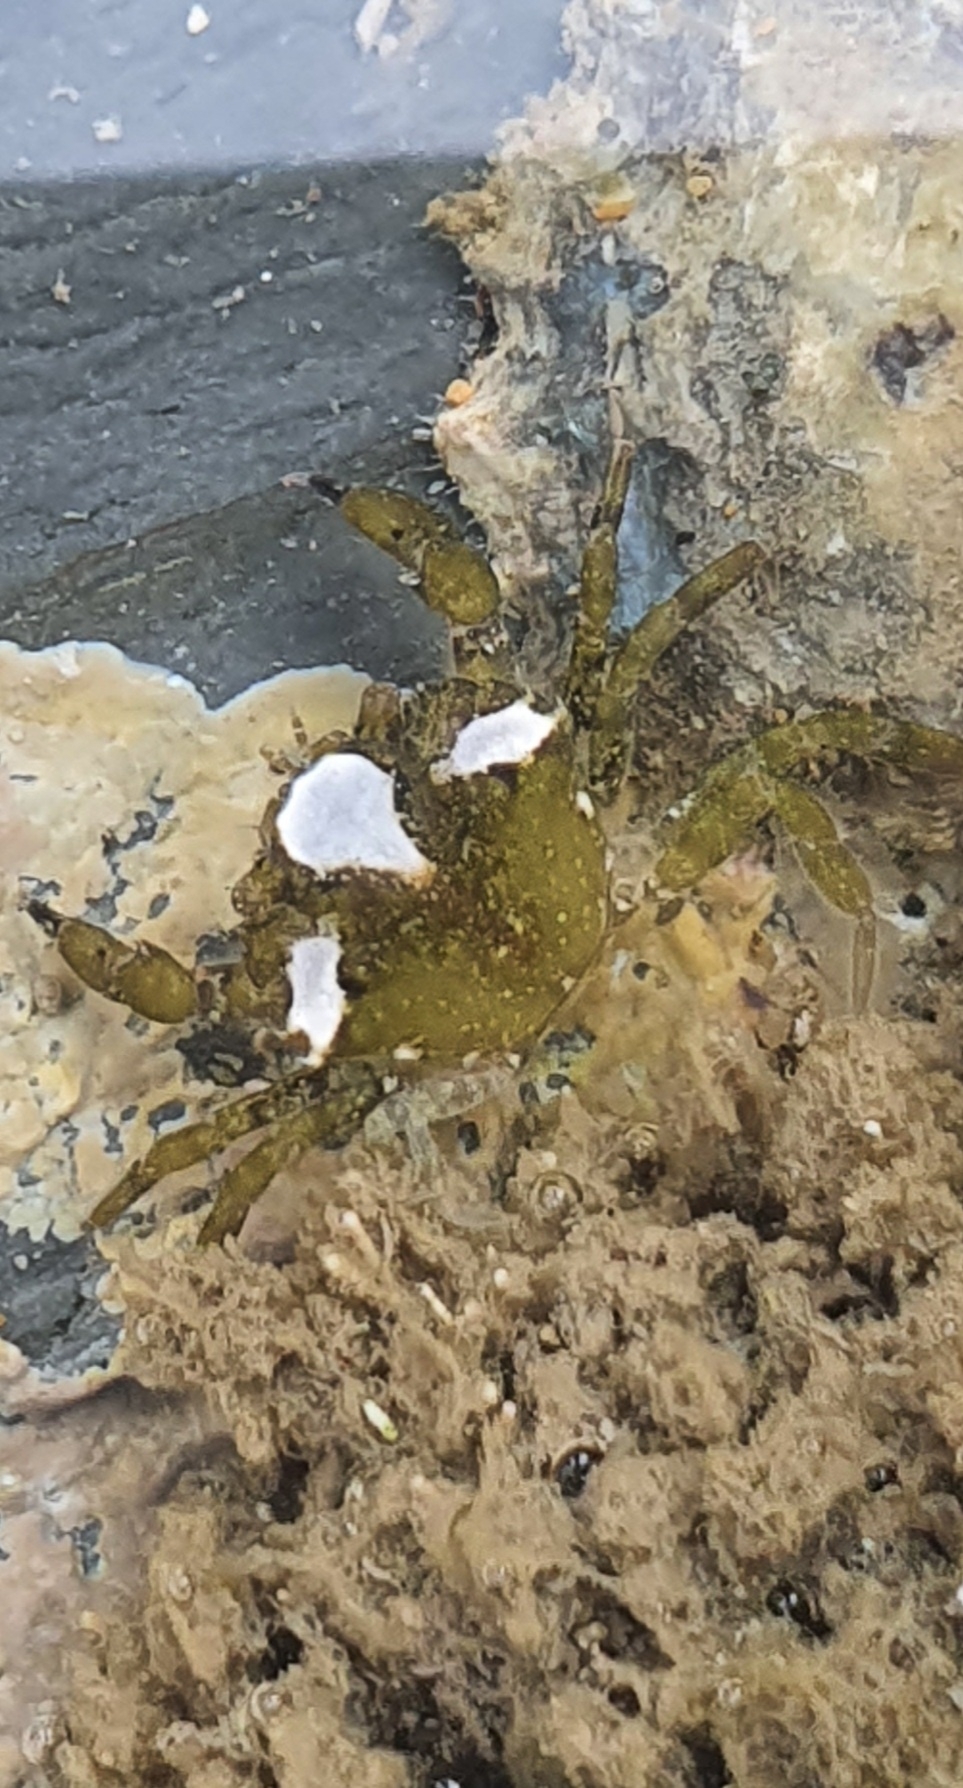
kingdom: Animalia
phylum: Arthropoda
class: Malacostraca
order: Decapoda
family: Carcinidae
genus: Carcinus
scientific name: Carcinus maenas
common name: European green crab
